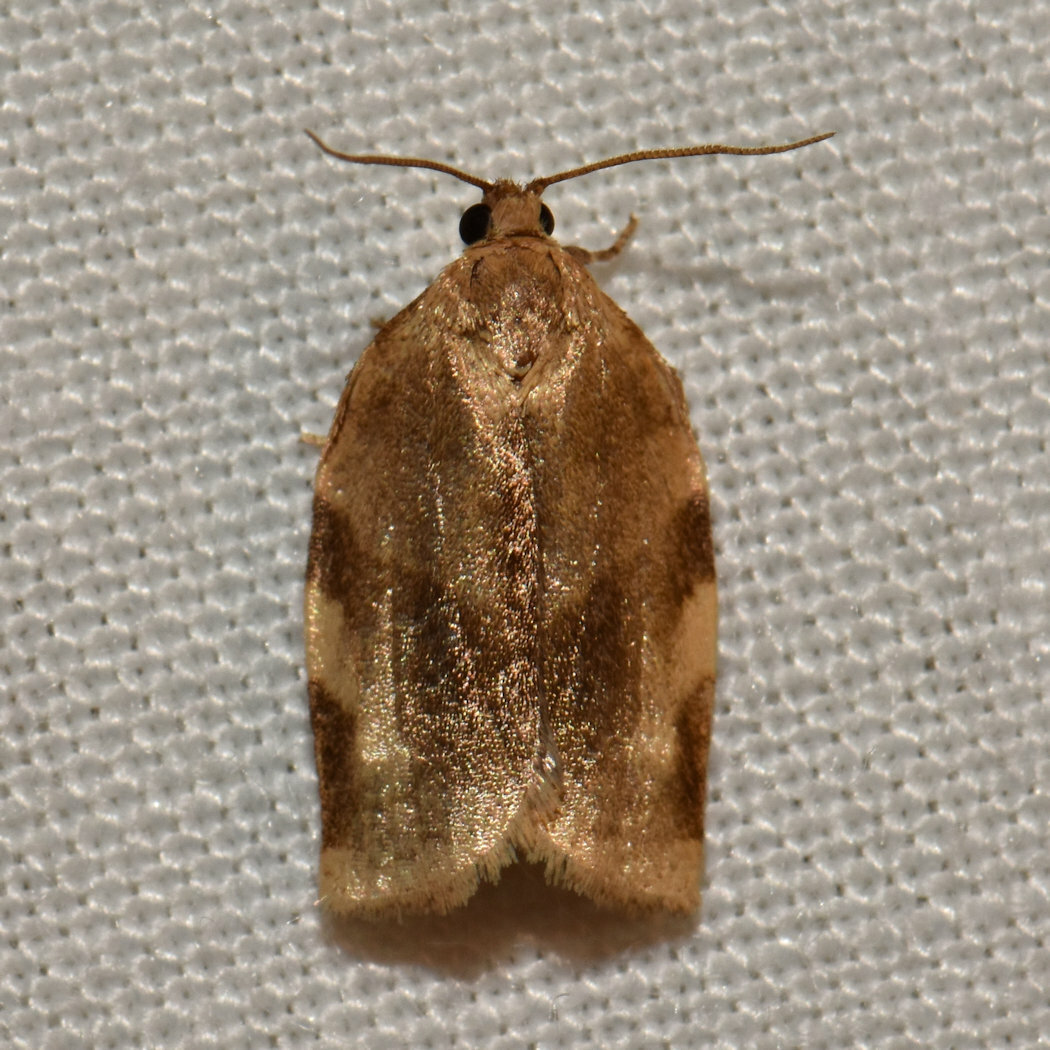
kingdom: Animalia
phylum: Arthropoda
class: Insecta
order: Lepidoptera
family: Tortricidae
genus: Choristoneura
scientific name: Choristoneura fractivittana
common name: Broken-banded leafroller moth
